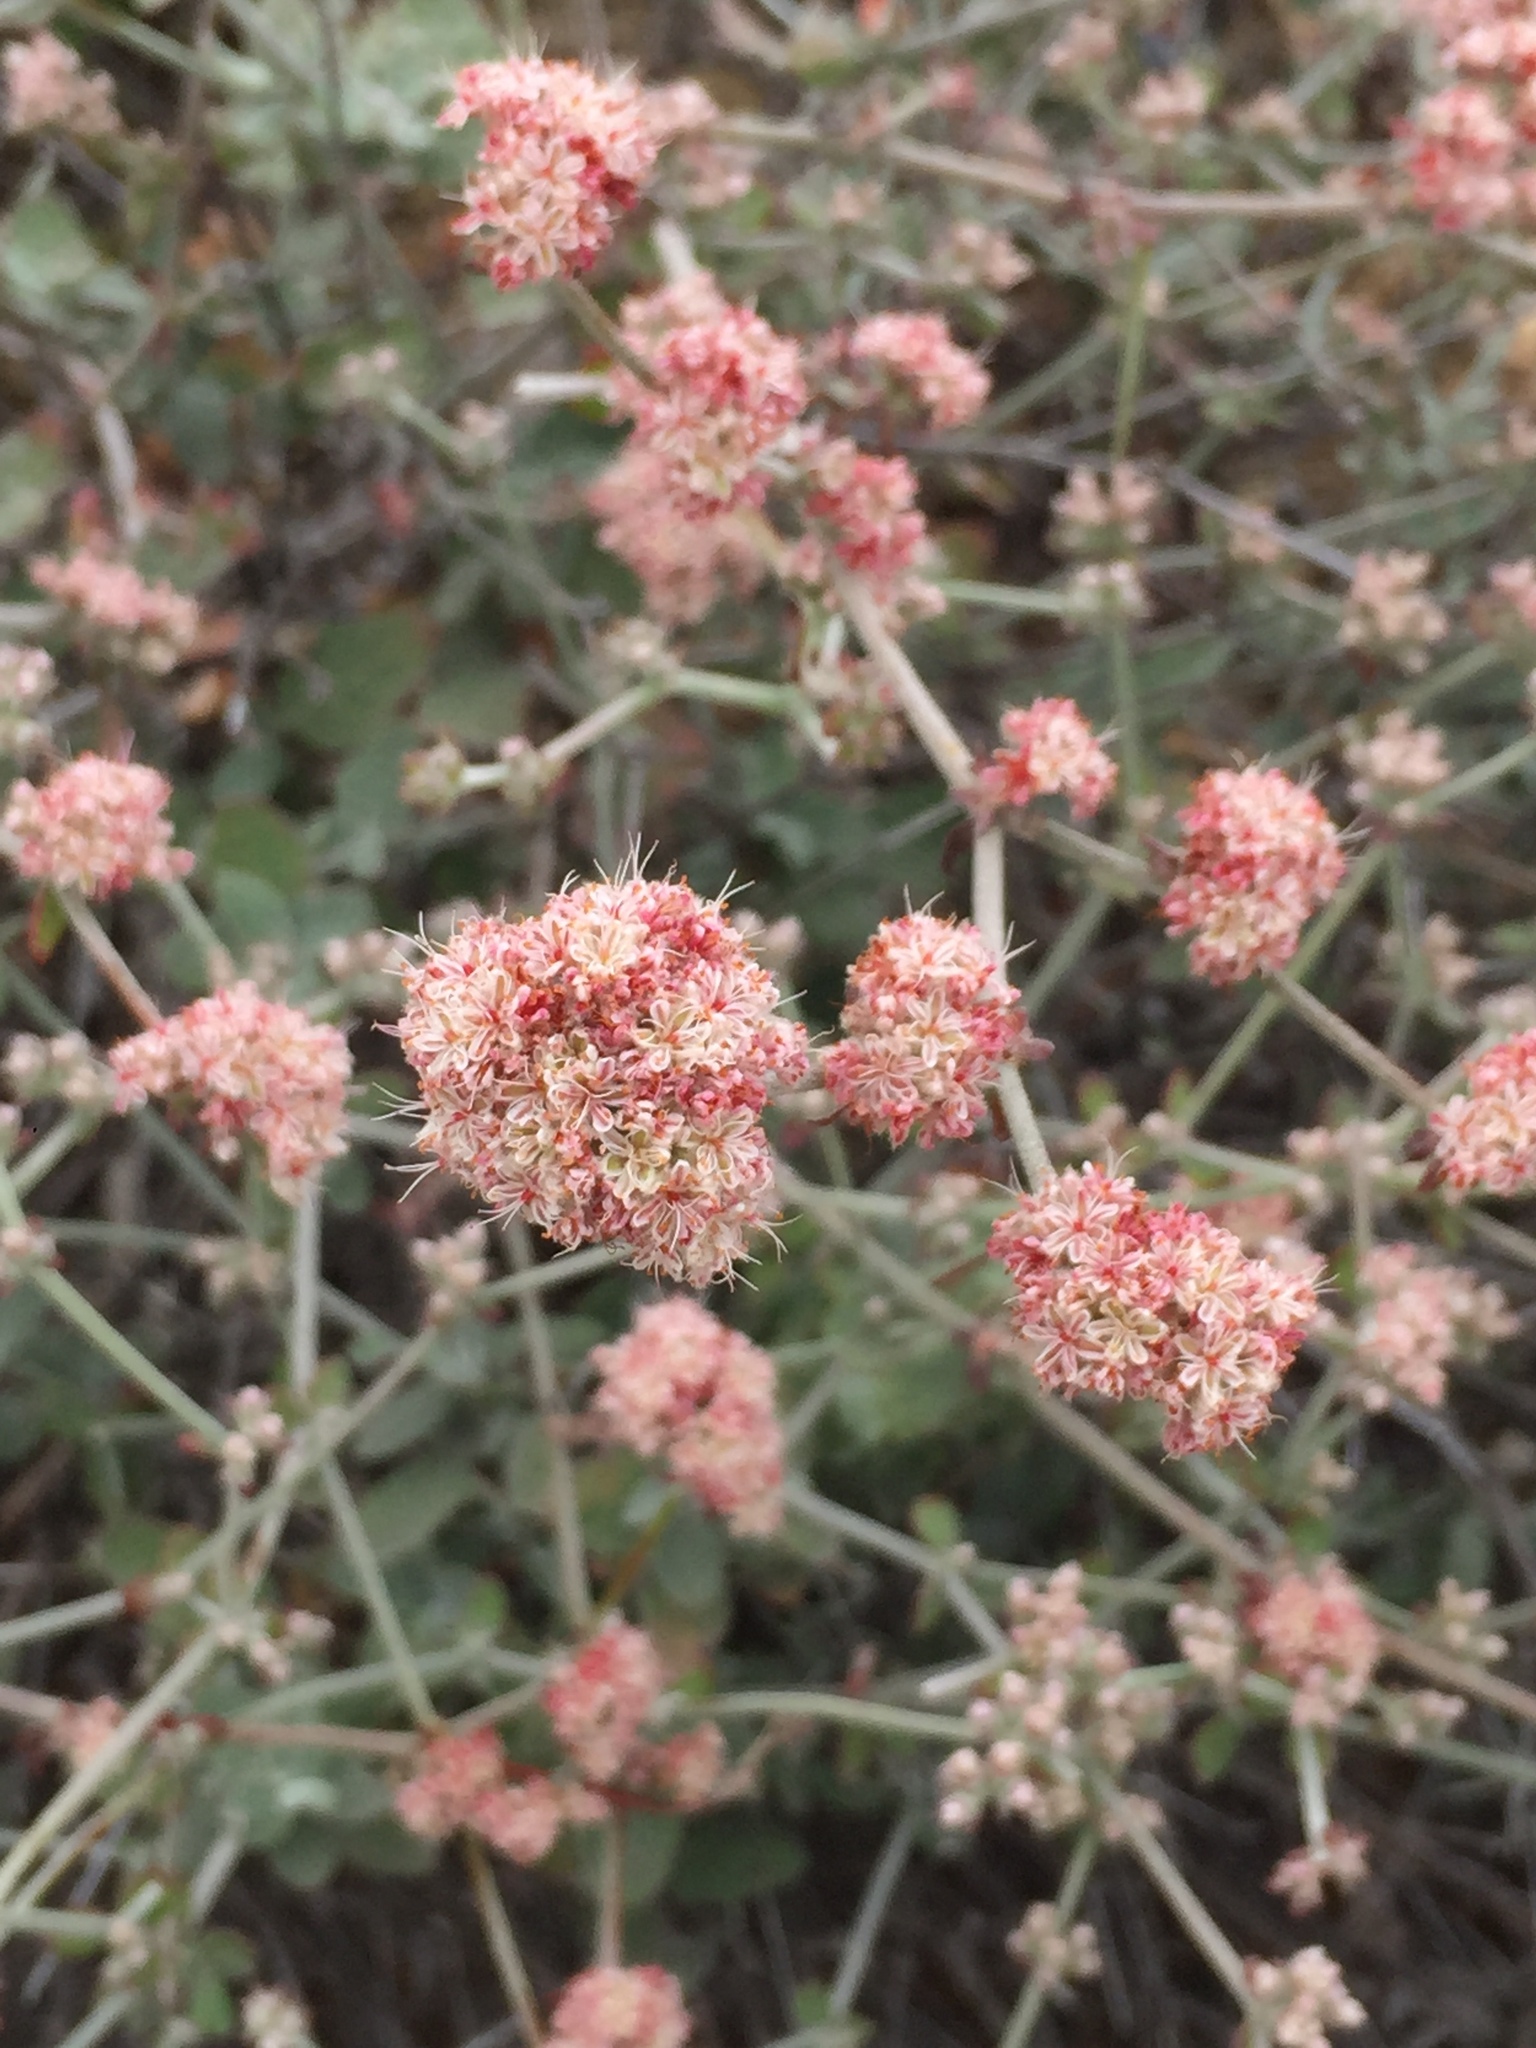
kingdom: Plantae
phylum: Tracheophyta
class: Magnoliopsida
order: Caryophyllales
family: Polygonaceae
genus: Eriogonum
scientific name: Eriogonum cinereum
